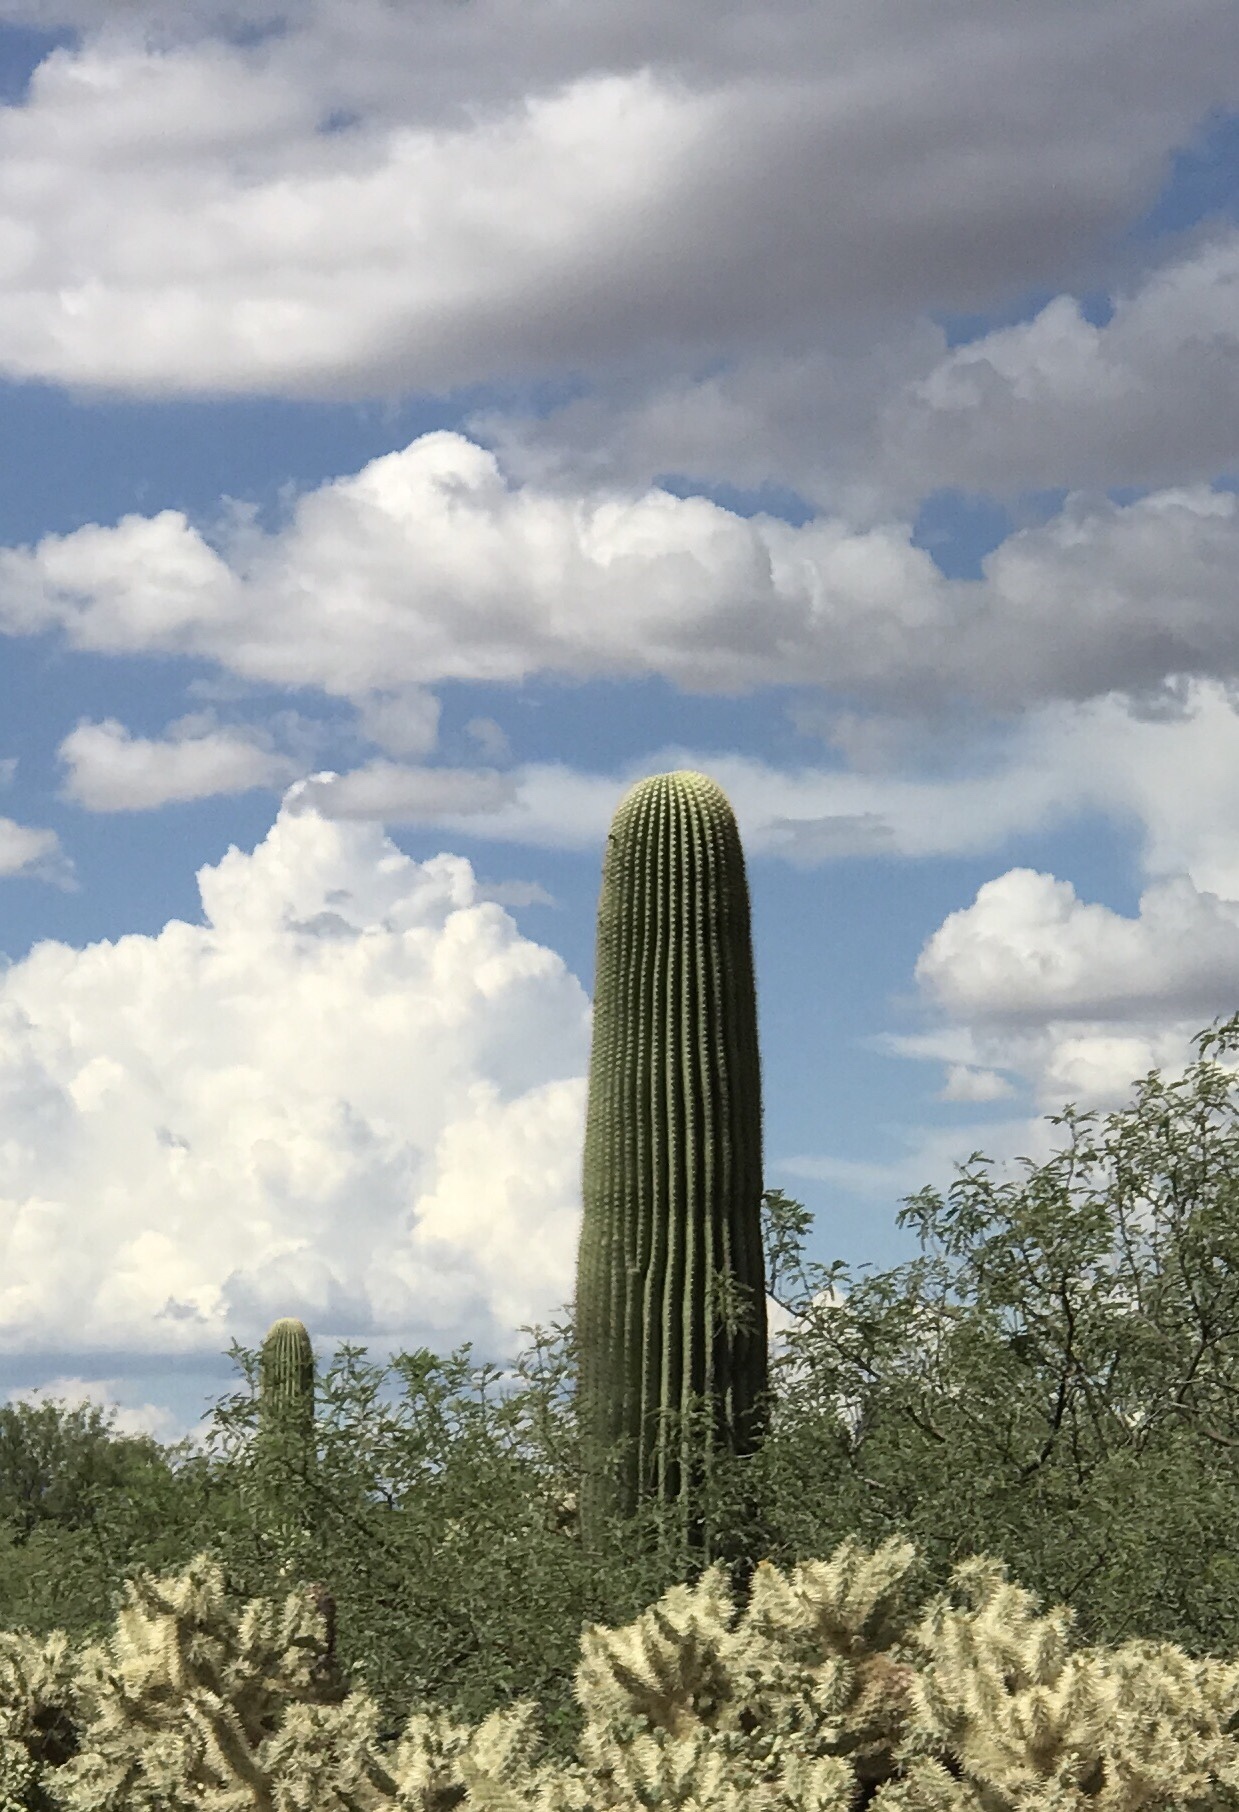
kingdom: Plantae
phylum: Tracheophyta
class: Magnoliopsida
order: Caryophyllales
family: Cactaceae
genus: Carnegiea
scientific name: Carnegiea gigantea
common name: Saguaro
